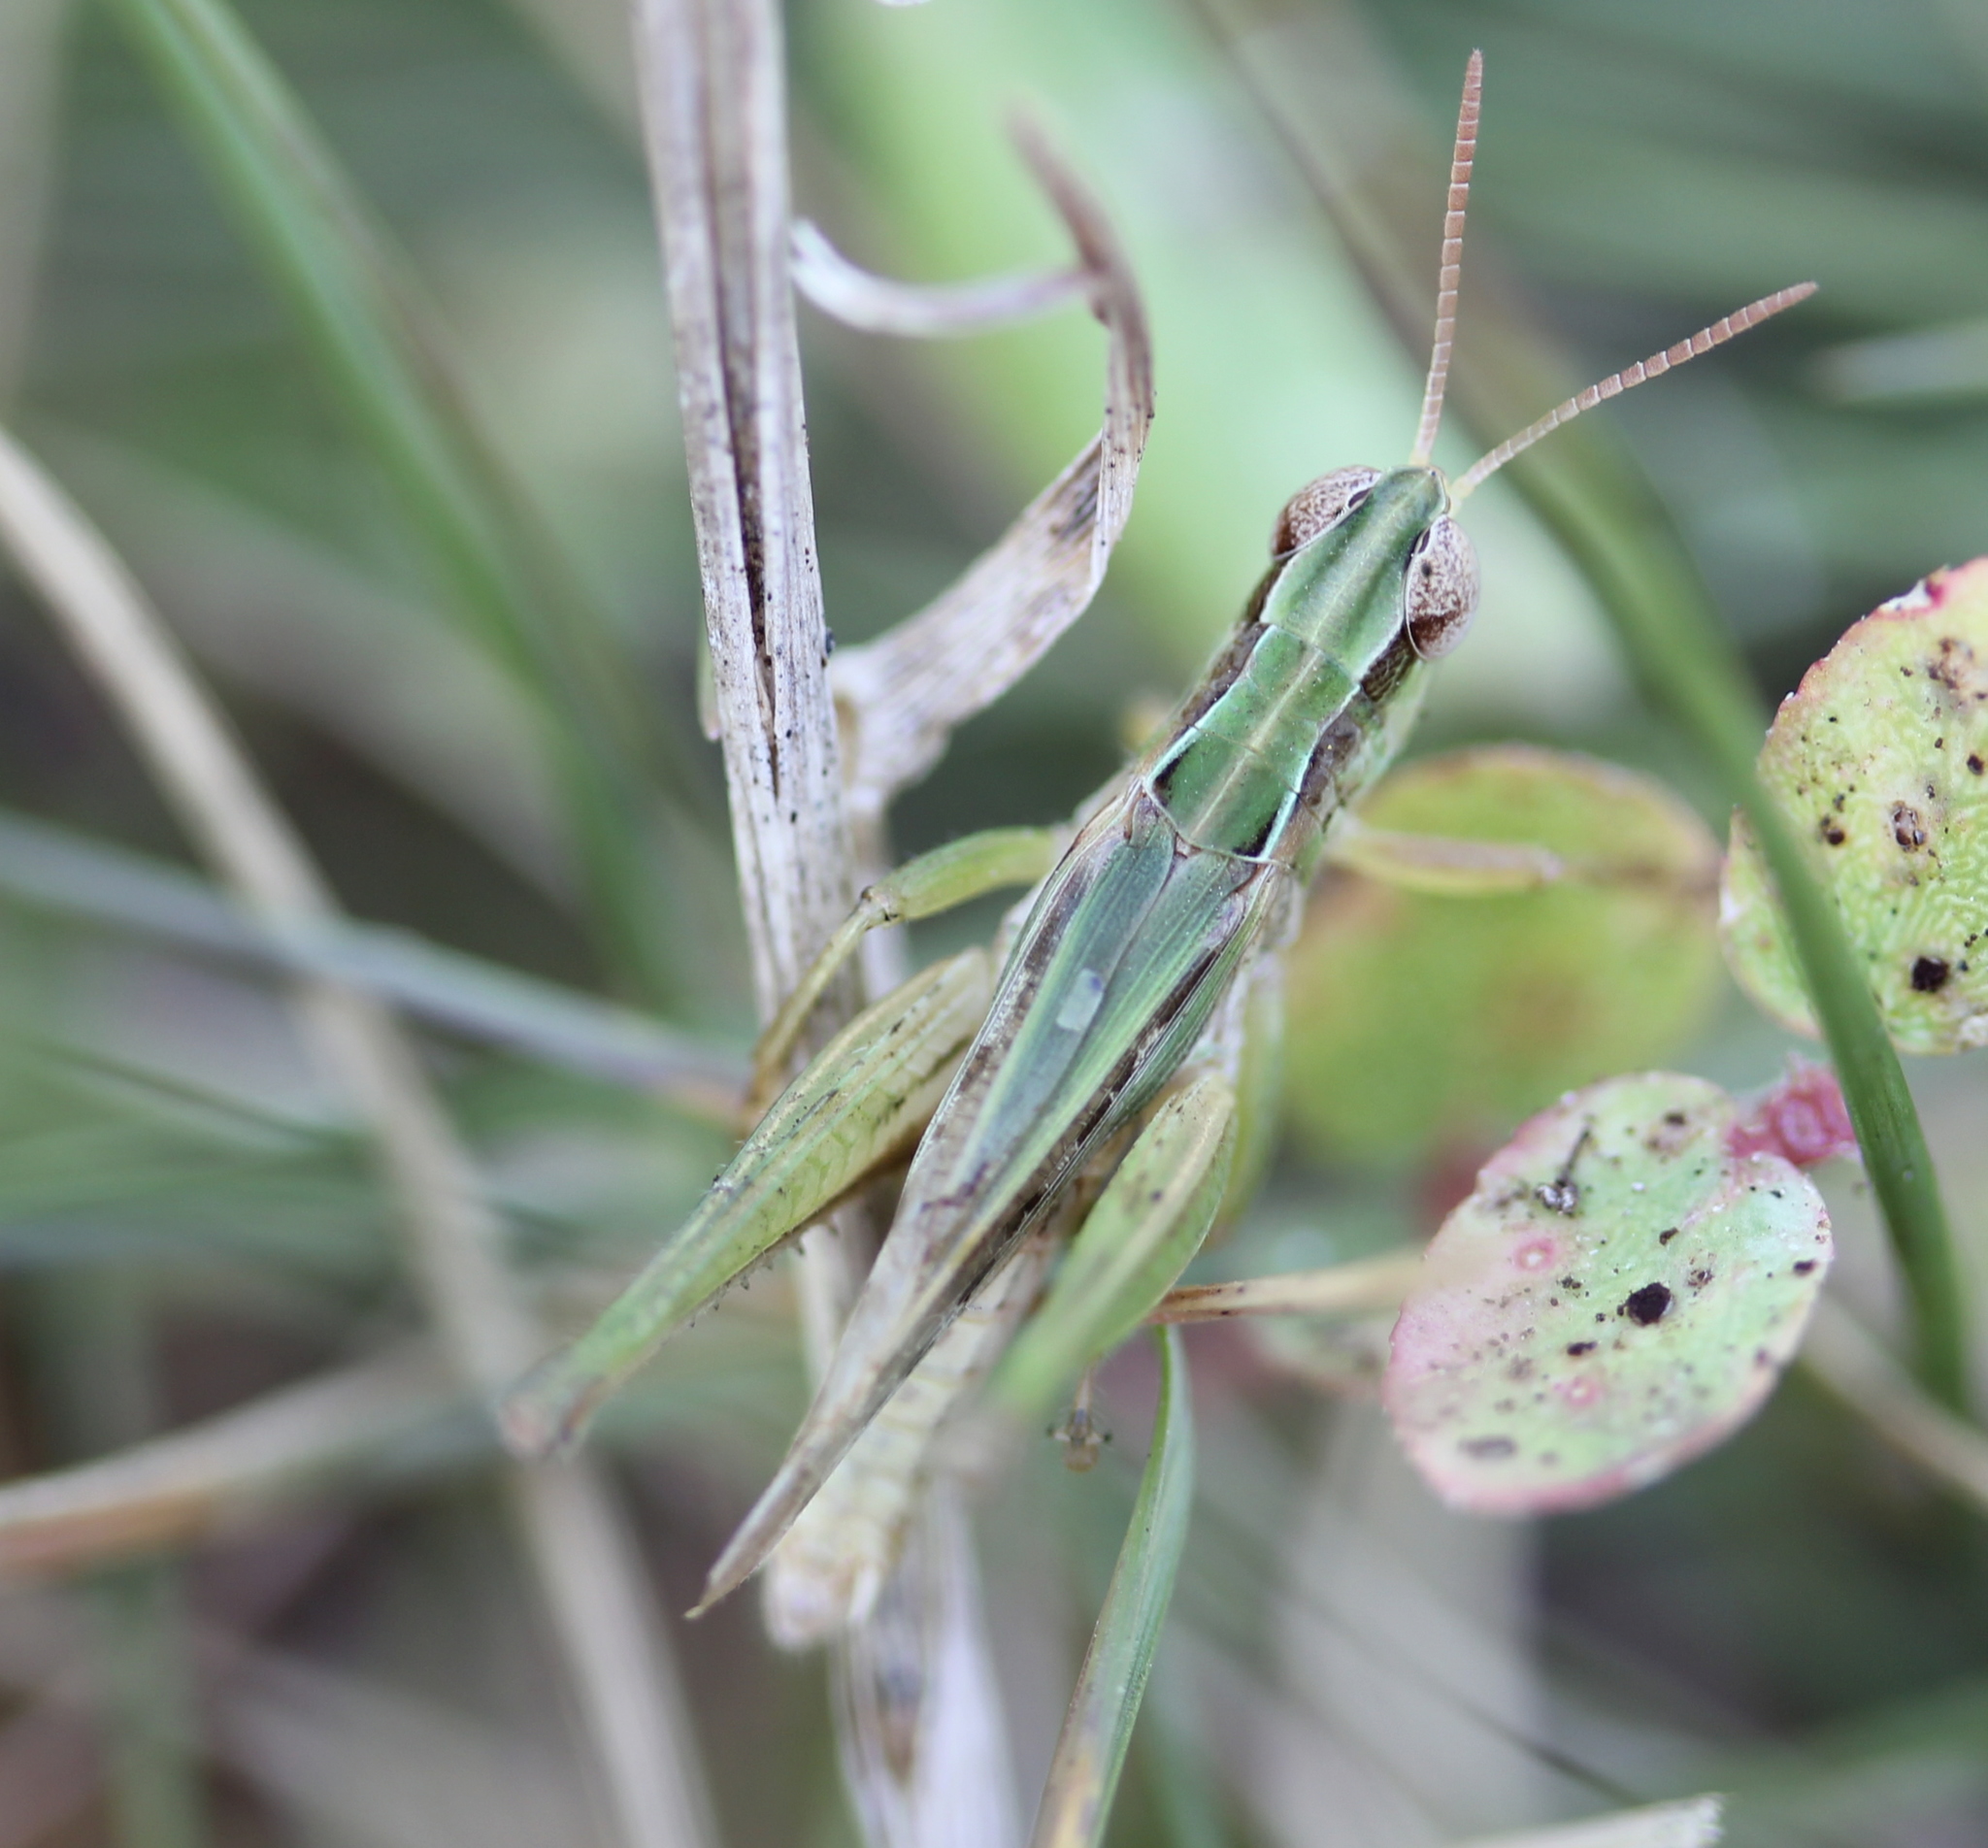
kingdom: Animalia
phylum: Arthropoda
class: Insecta
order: Orthoptera
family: Acrididae
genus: Orphulella
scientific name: Orphulella speciosa
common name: Pasture grasshopper
